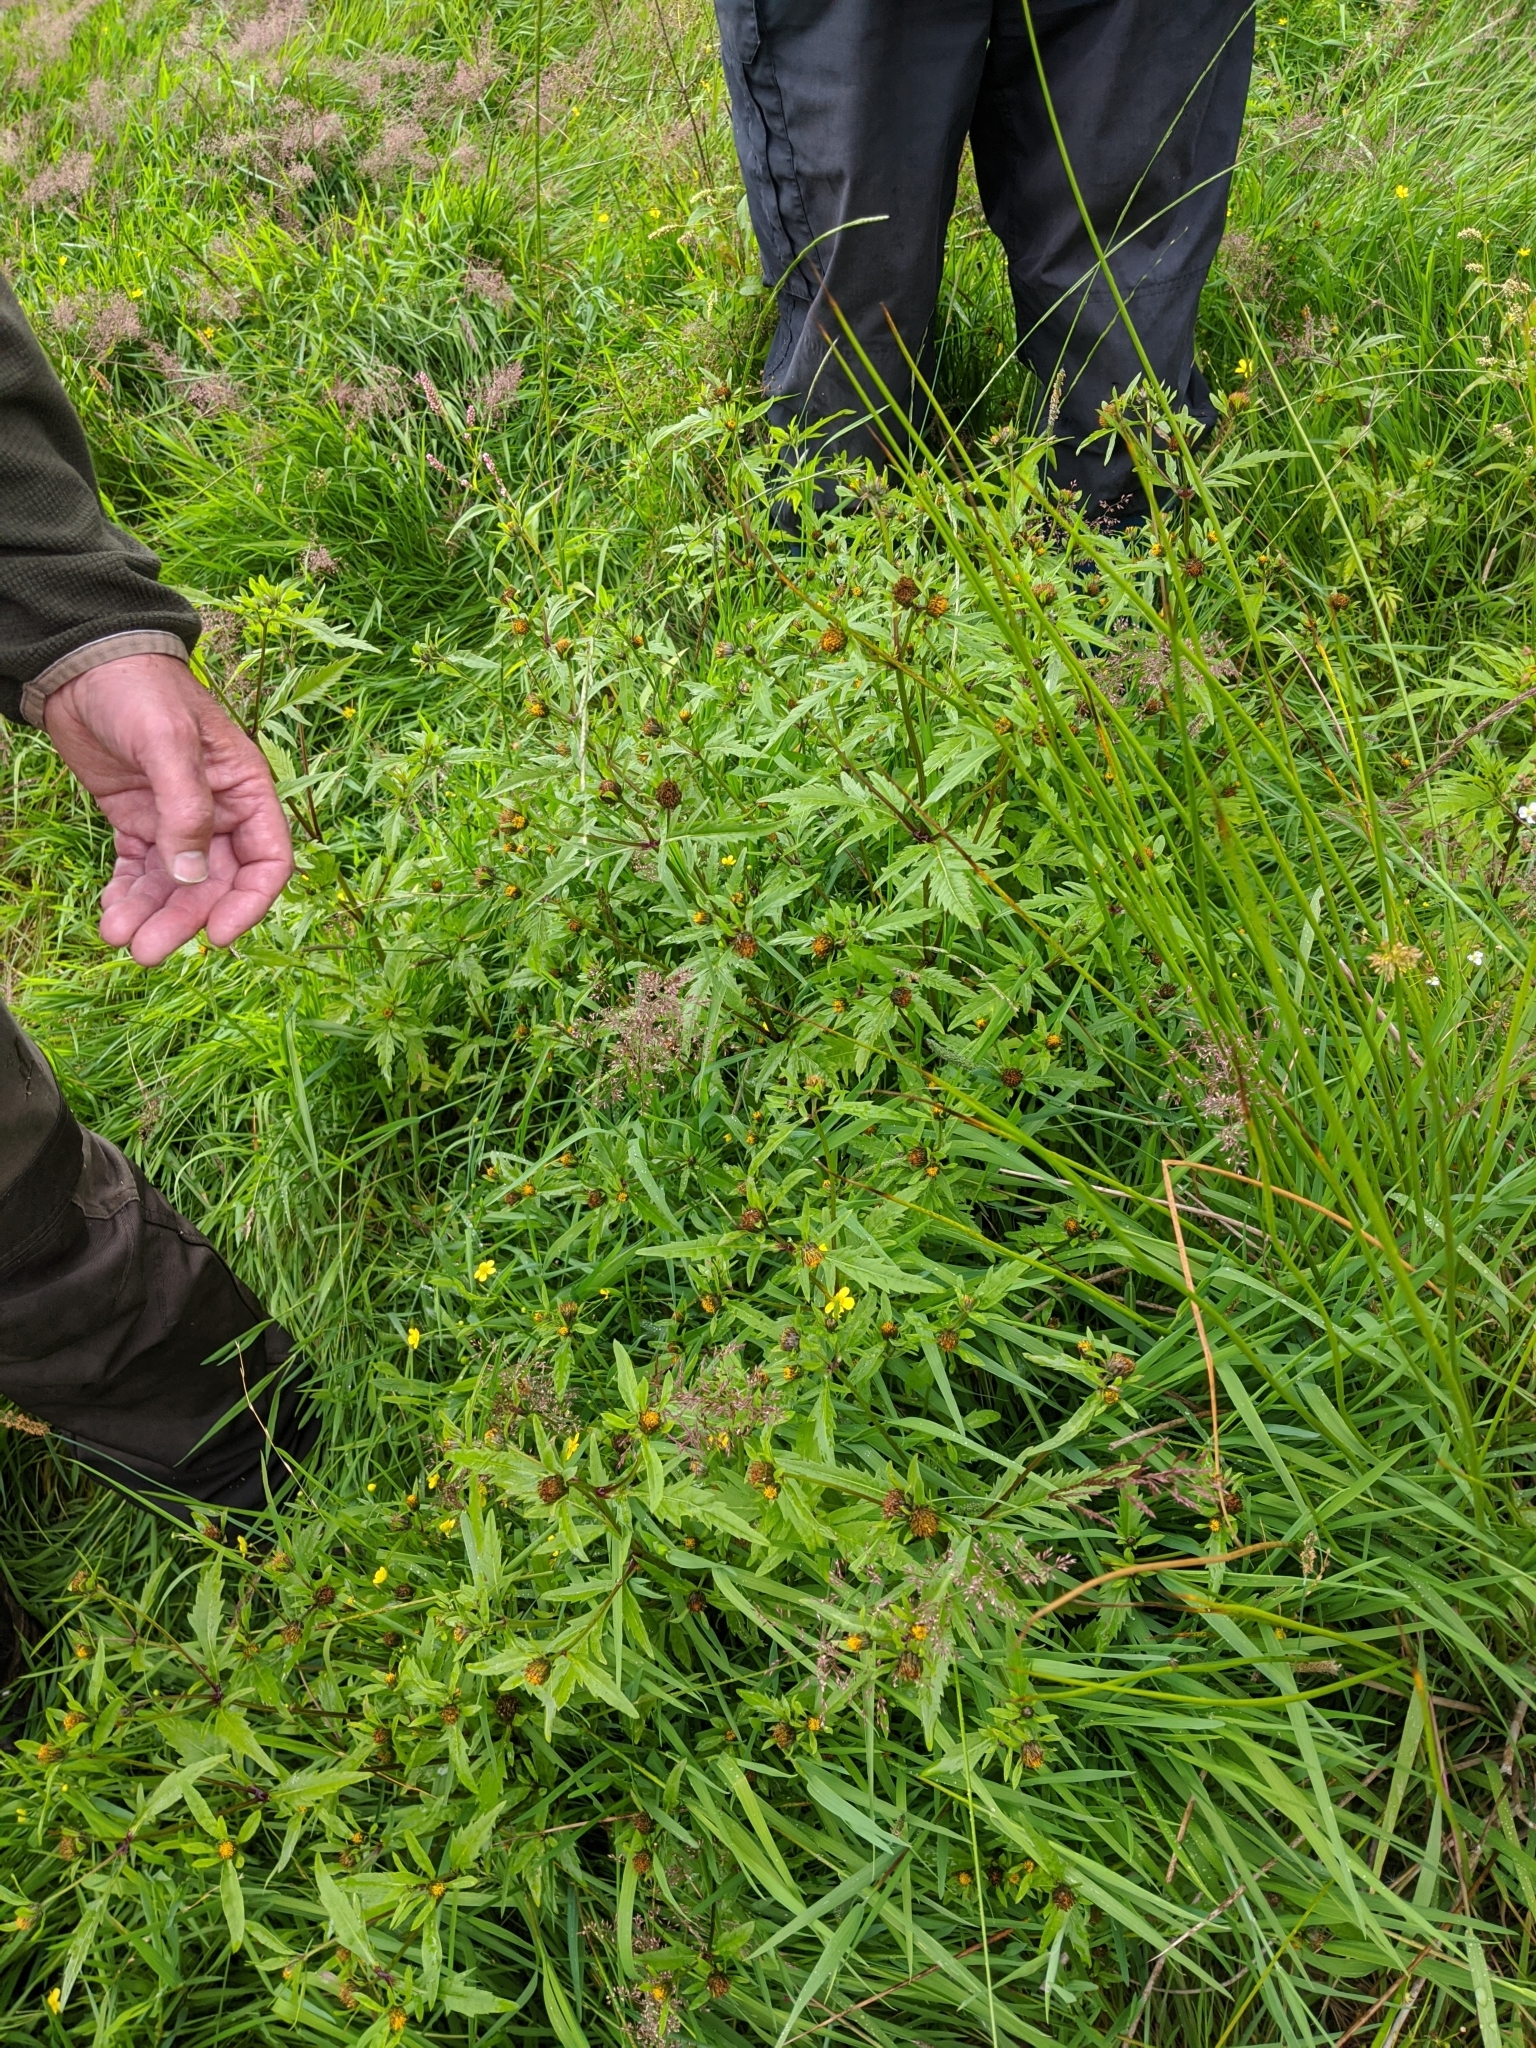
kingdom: Plantae
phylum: Tracheophyta
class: Magnoliopsida
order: Asterales
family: Asteraceae
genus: Bidens
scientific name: Bidens tripartita
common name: Trifid bur-marigold
